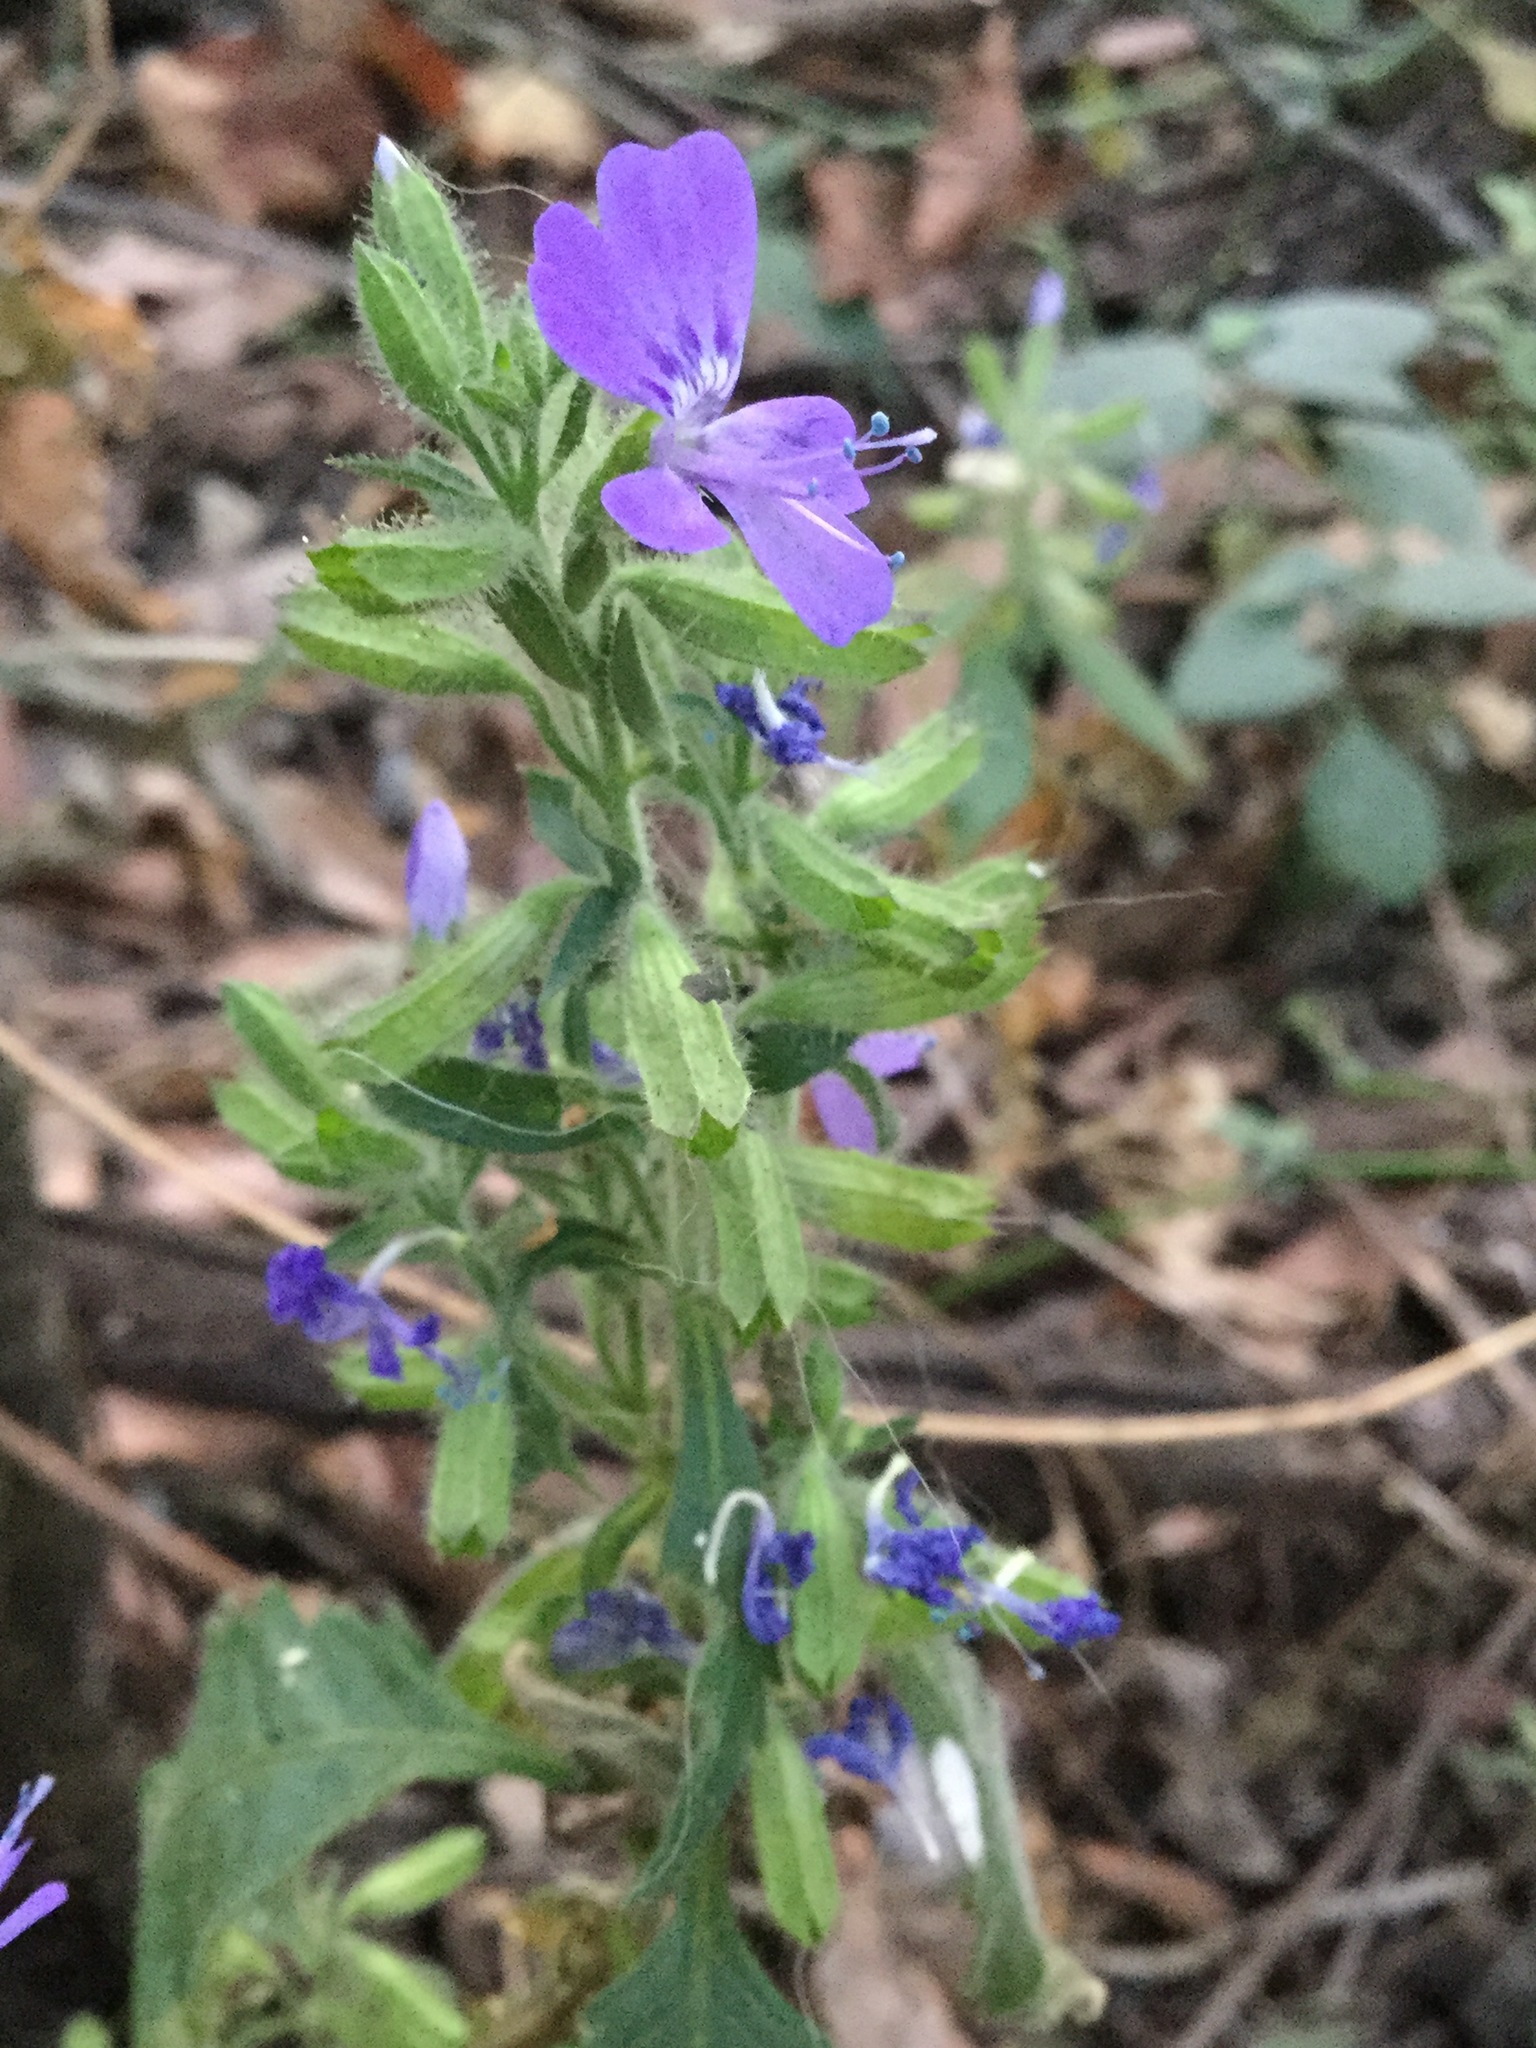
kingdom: Plantae
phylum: Tracheophyta
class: Magnoliopsida
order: Ericales
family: Polemoniaceae
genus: Bonplandia
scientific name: Bonplandia geminiflora
